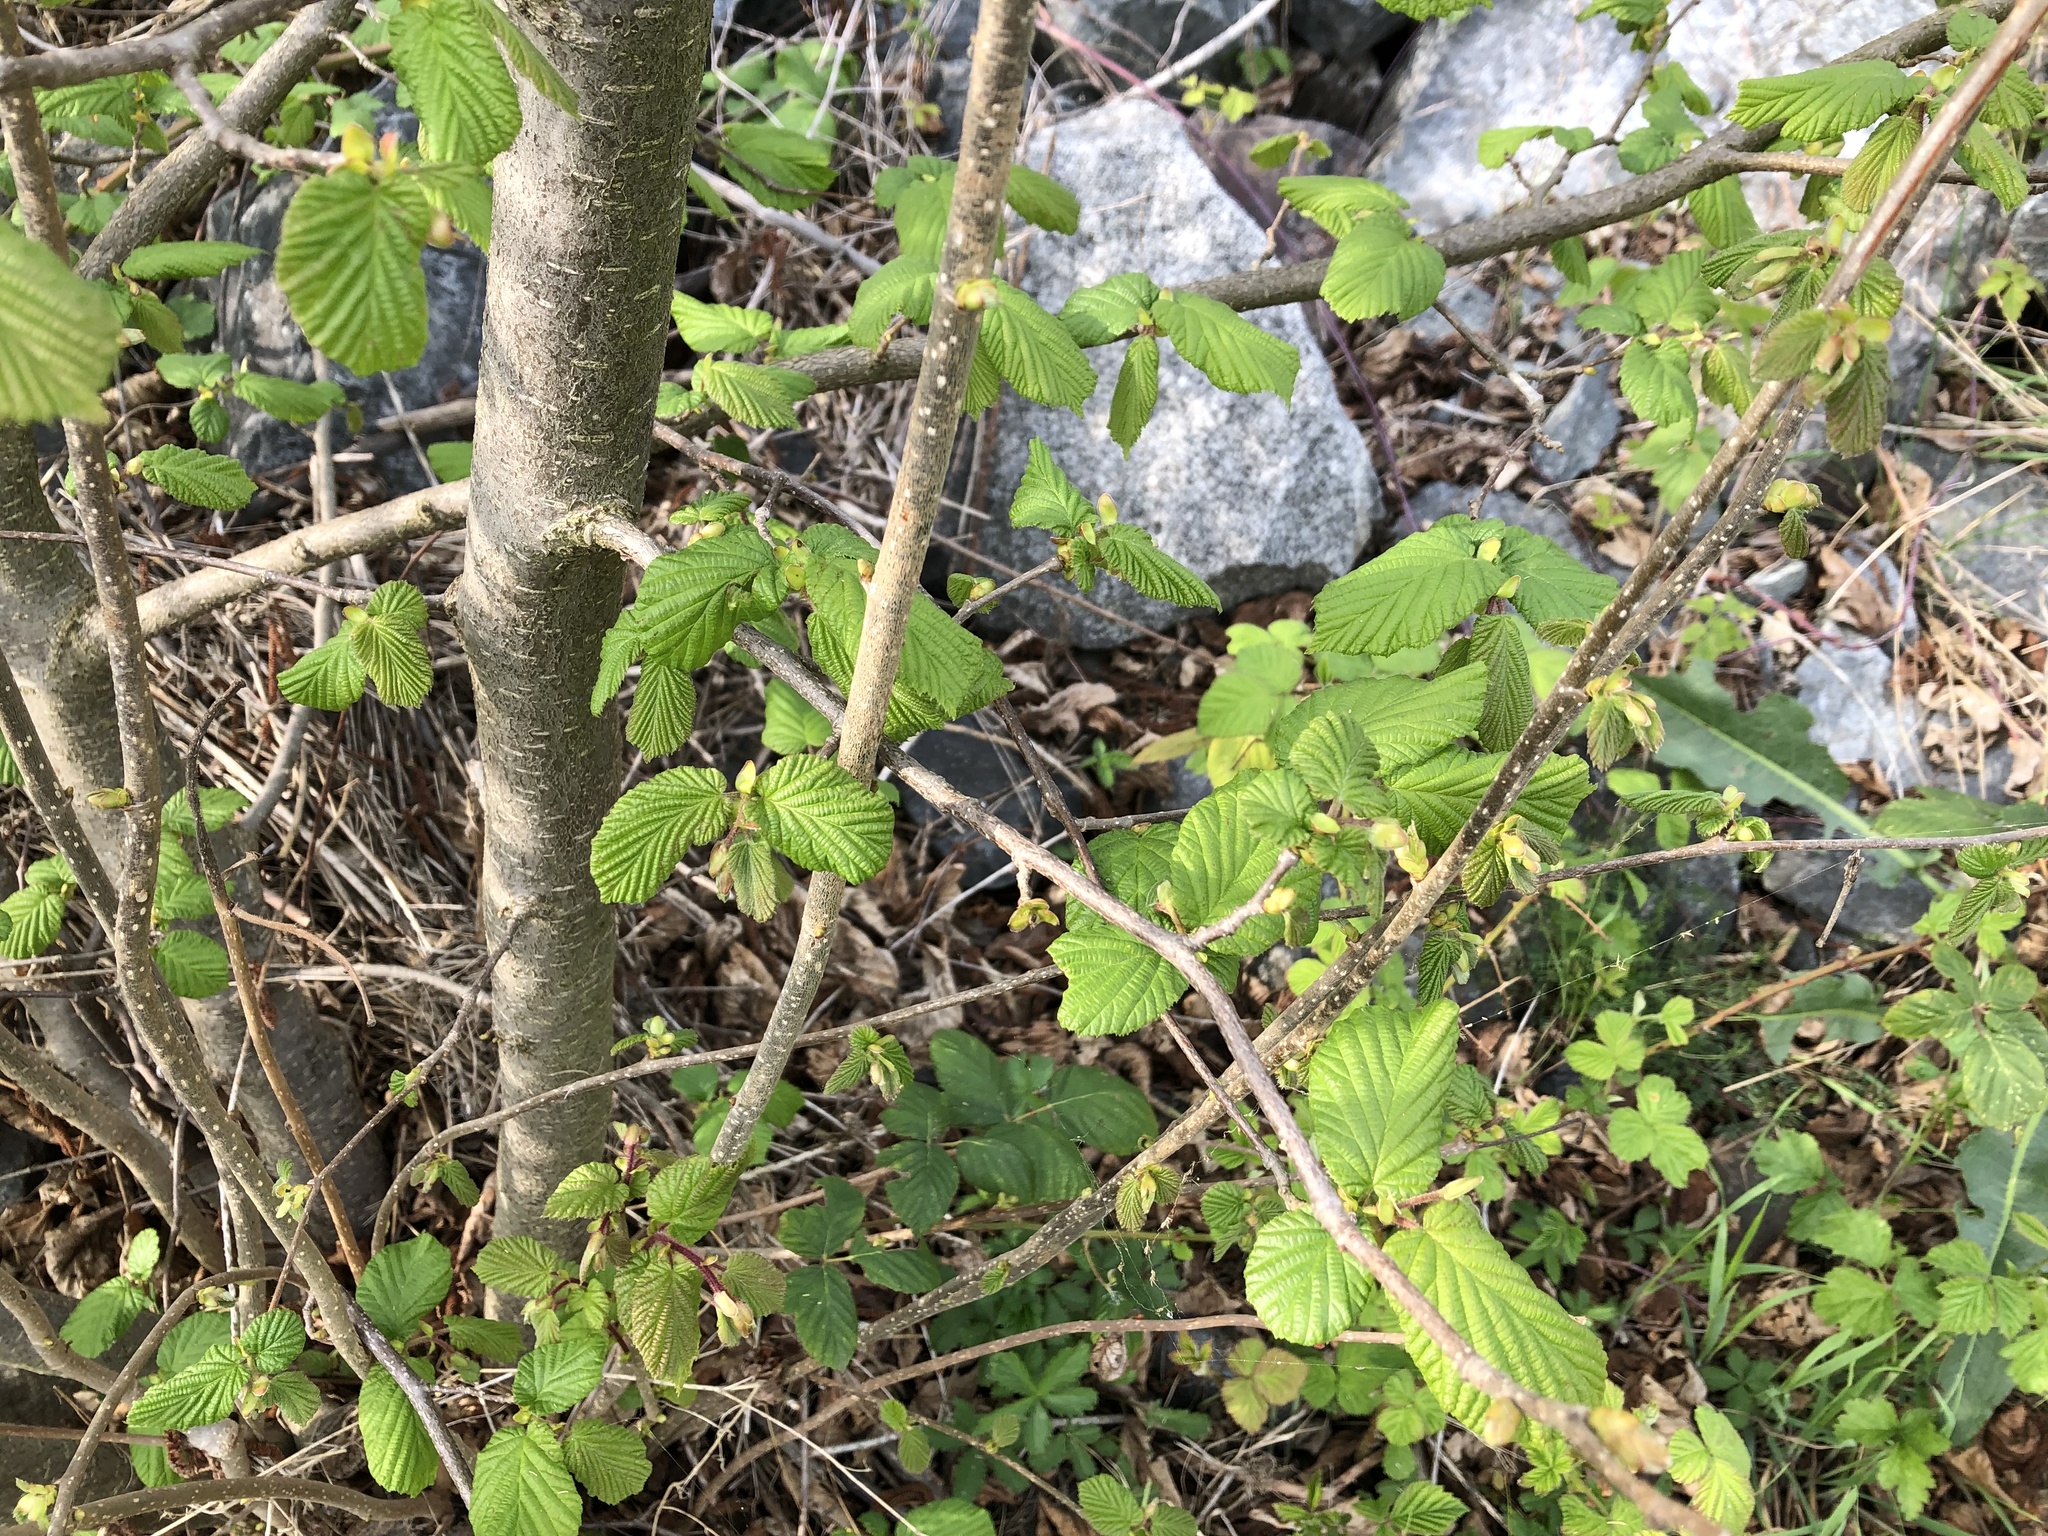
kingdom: Plantae
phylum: Tracheophyta
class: Magnoliopsida
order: Fagales
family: Betulaceae
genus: Corylus
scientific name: Corylus avellana
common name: European hazel
